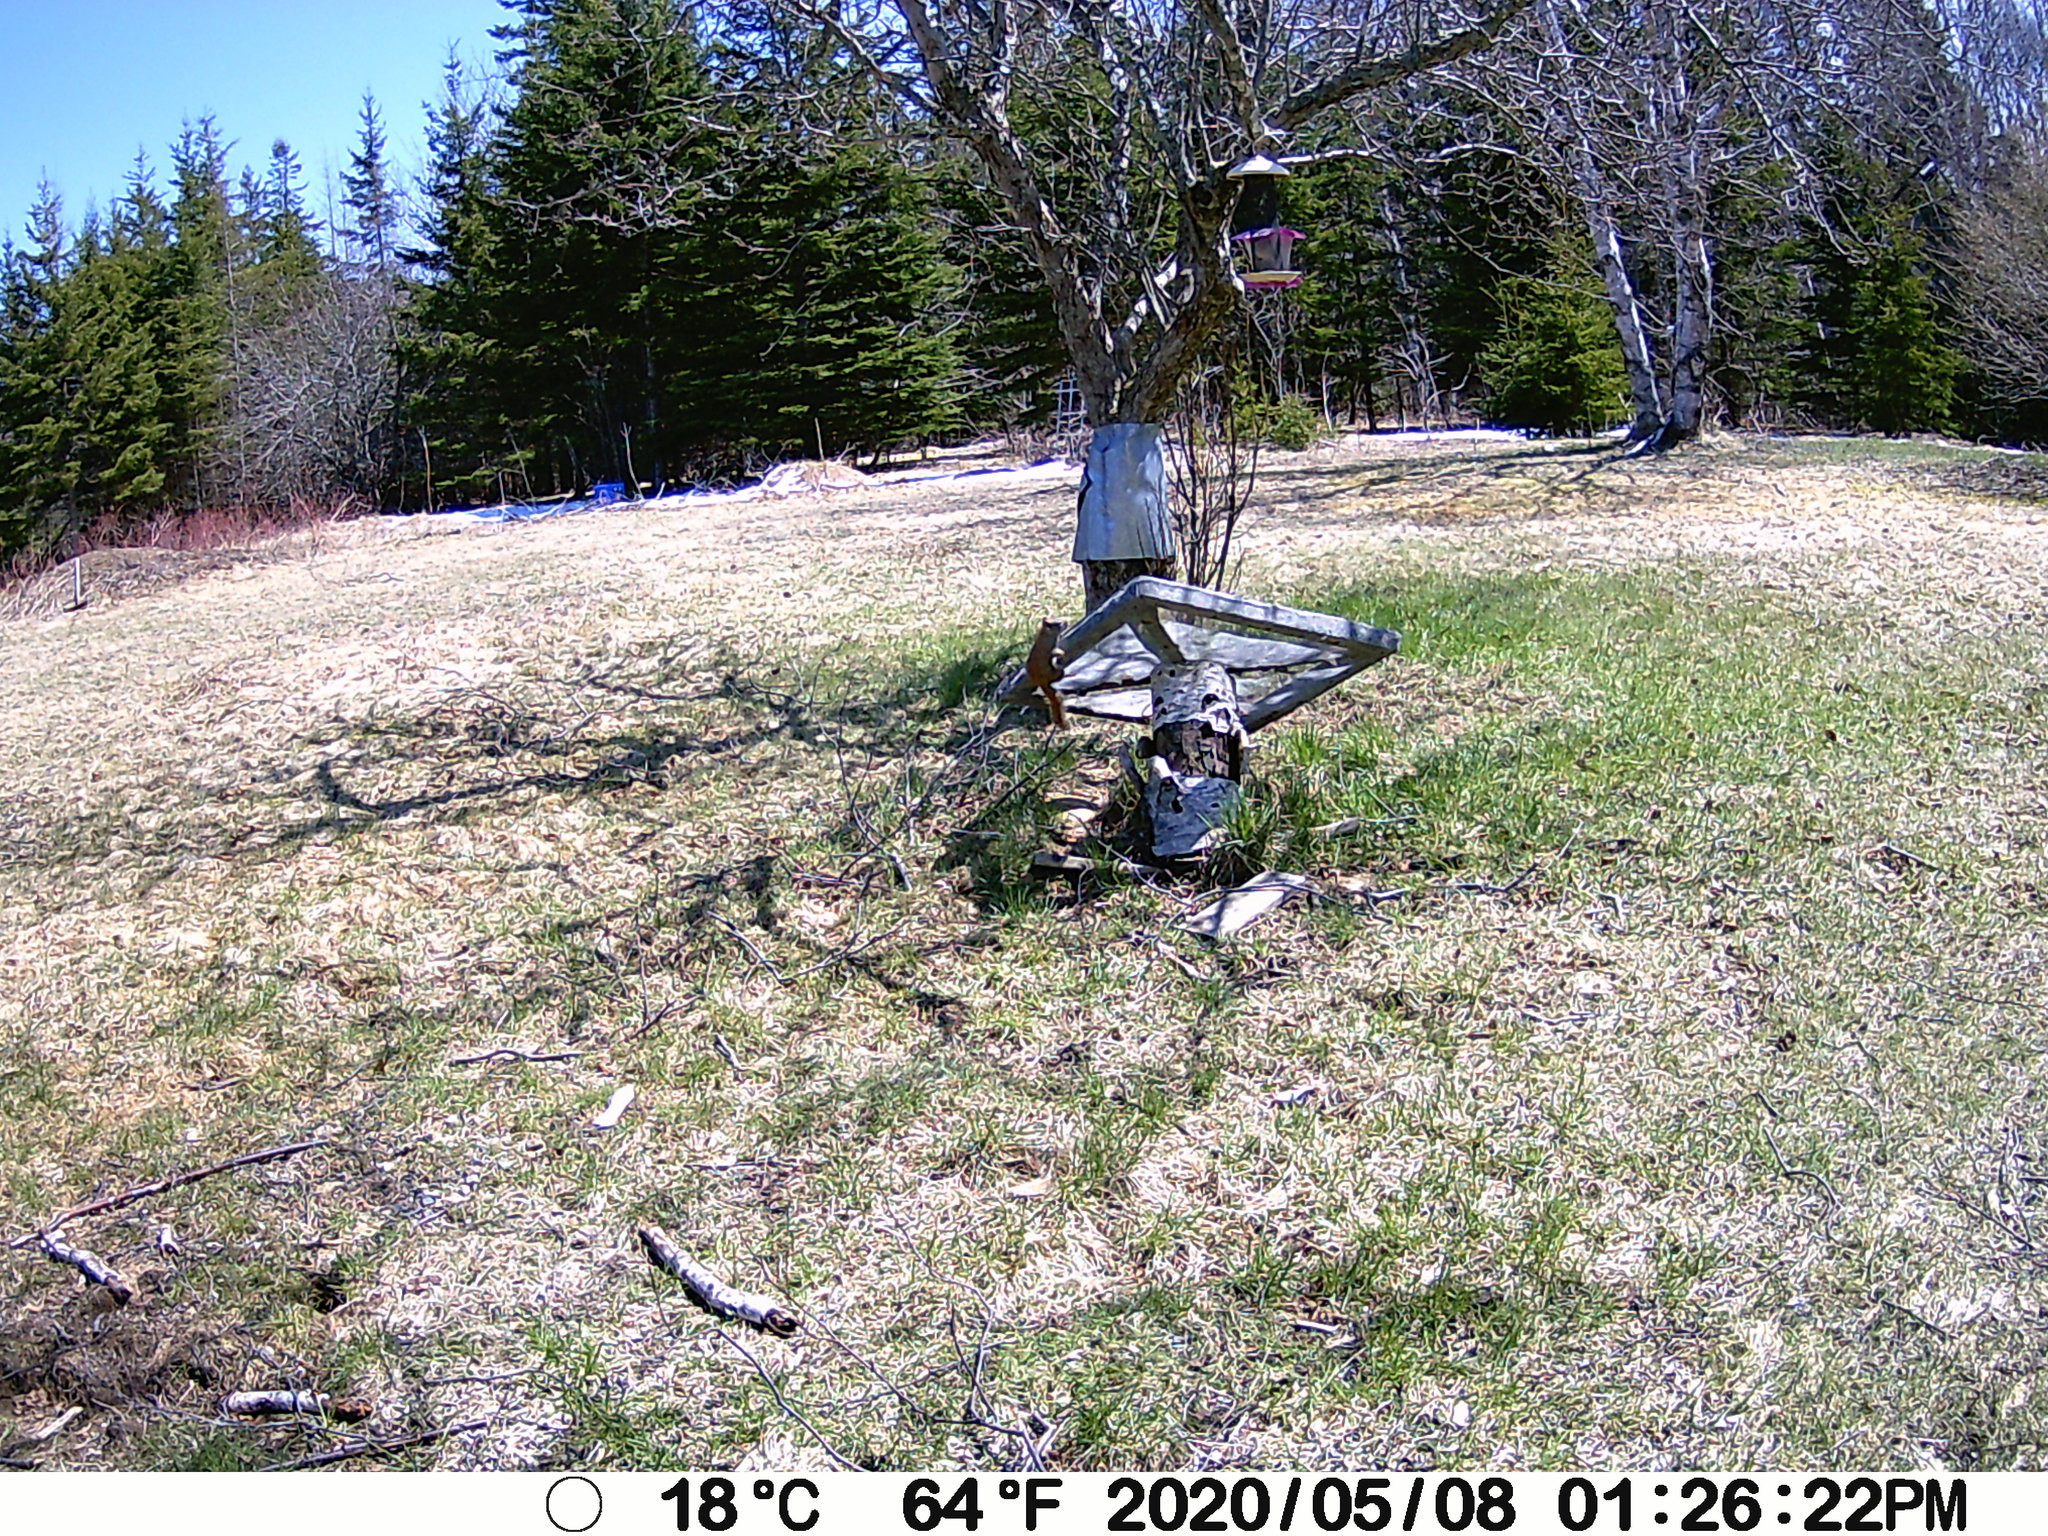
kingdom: Animalia
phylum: Chordata
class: Mammalia
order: Rodentia
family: Sciuridae
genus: Tamiasciurus
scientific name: Tamiasciurus hudsonicus
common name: Red squirrel
